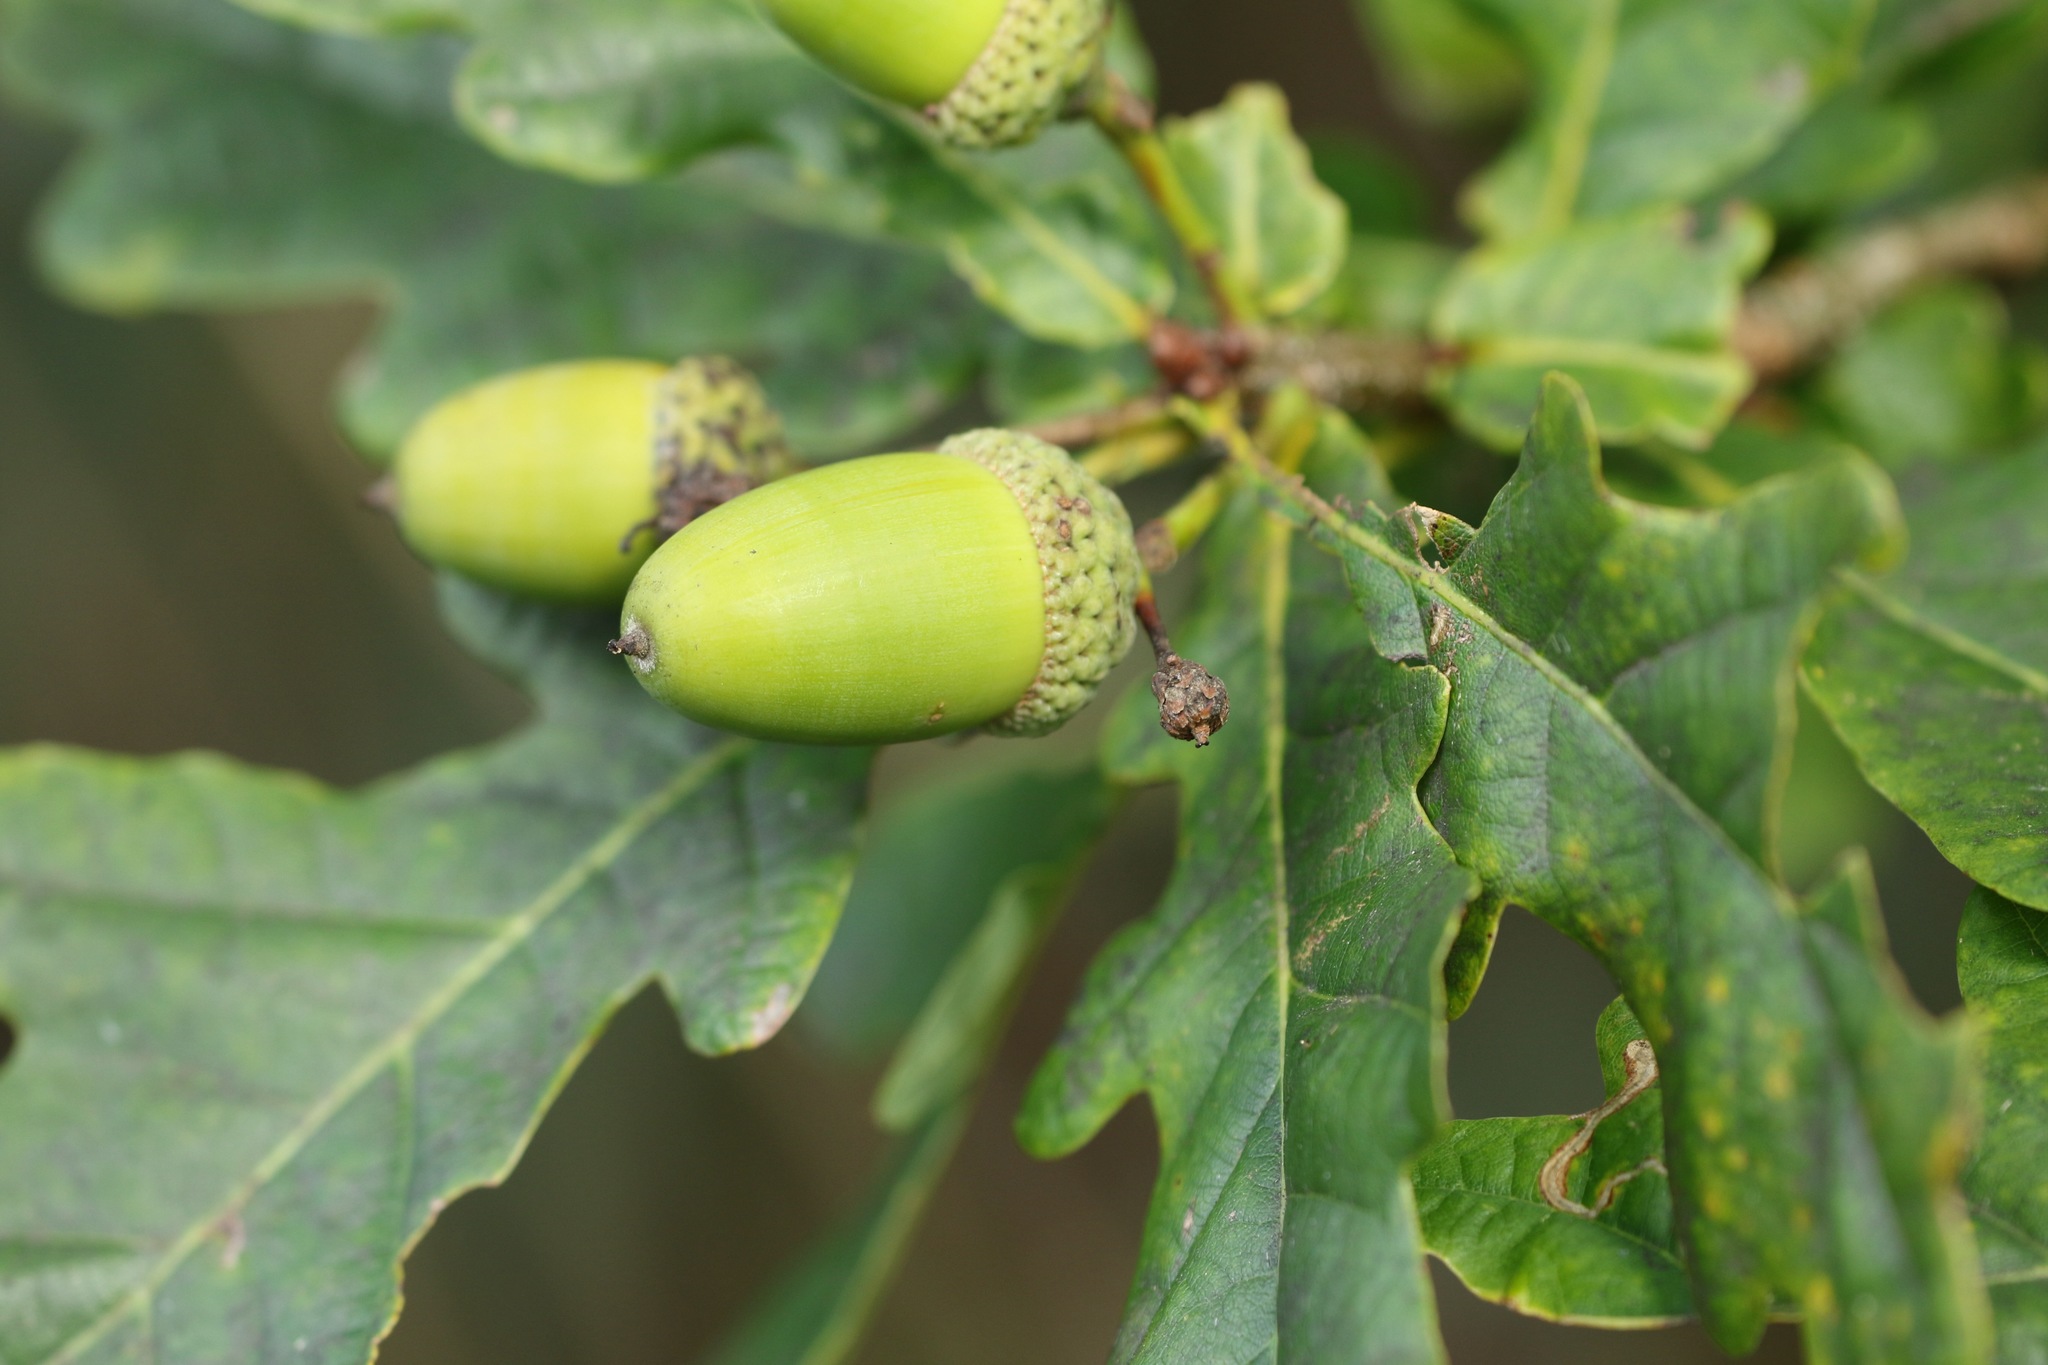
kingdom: Plantae
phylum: Tracheophyta
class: Magnoliopsida
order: Fagales
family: Fagaceae
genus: Quercus
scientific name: Quercus robur
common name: Pedunculate oak
